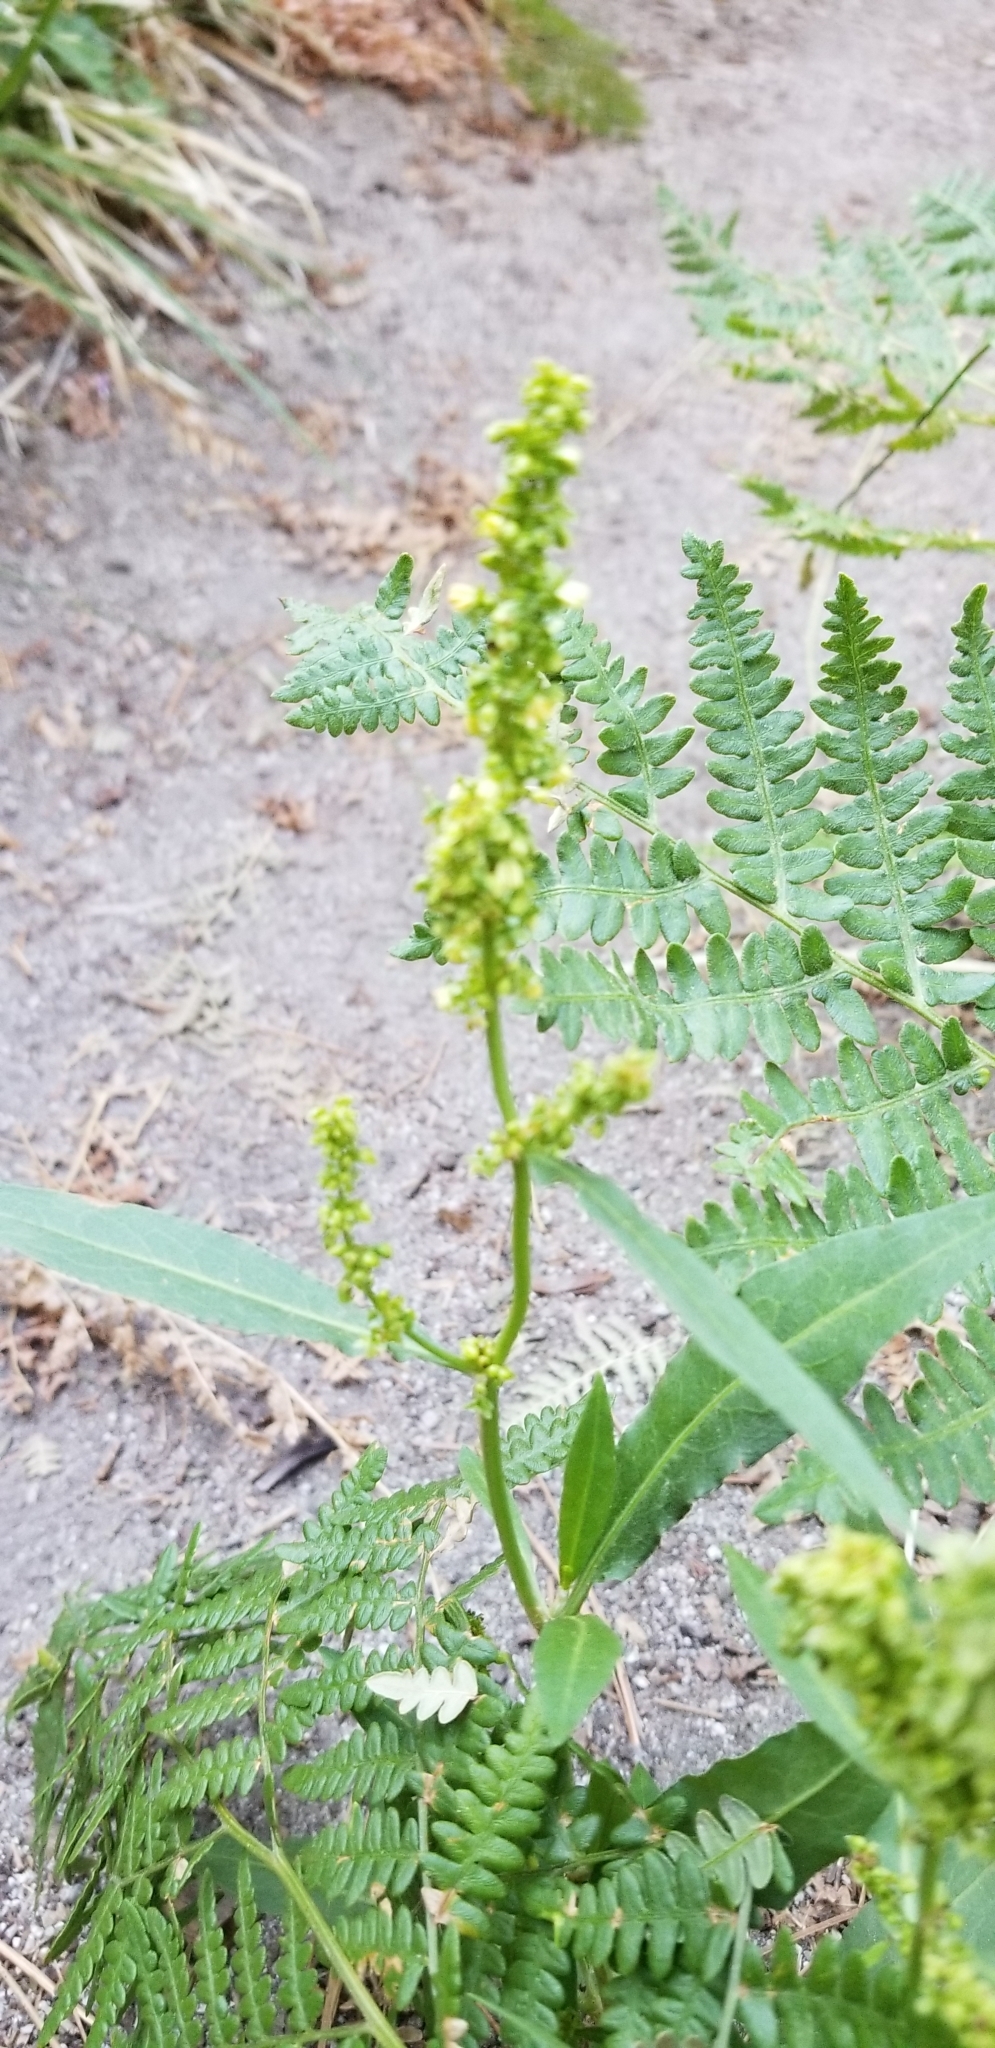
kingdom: Plantae
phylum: Tracheophyta
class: Magnoliopsida
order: Caryophyllales
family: Polygonaceae
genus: Rumex
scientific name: Rumex salicifolius
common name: Willow-leaved dock
